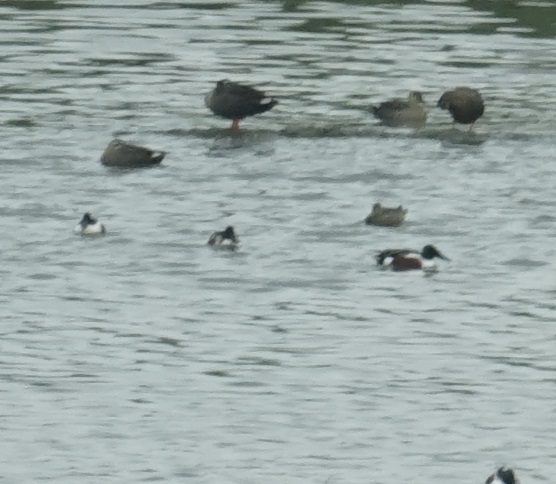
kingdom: Animalia
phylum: Chordata
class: Aves
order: Anseriformes
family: Anatidae
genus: Spatula
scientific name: Spatula clypeata
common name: Northern shoveler
